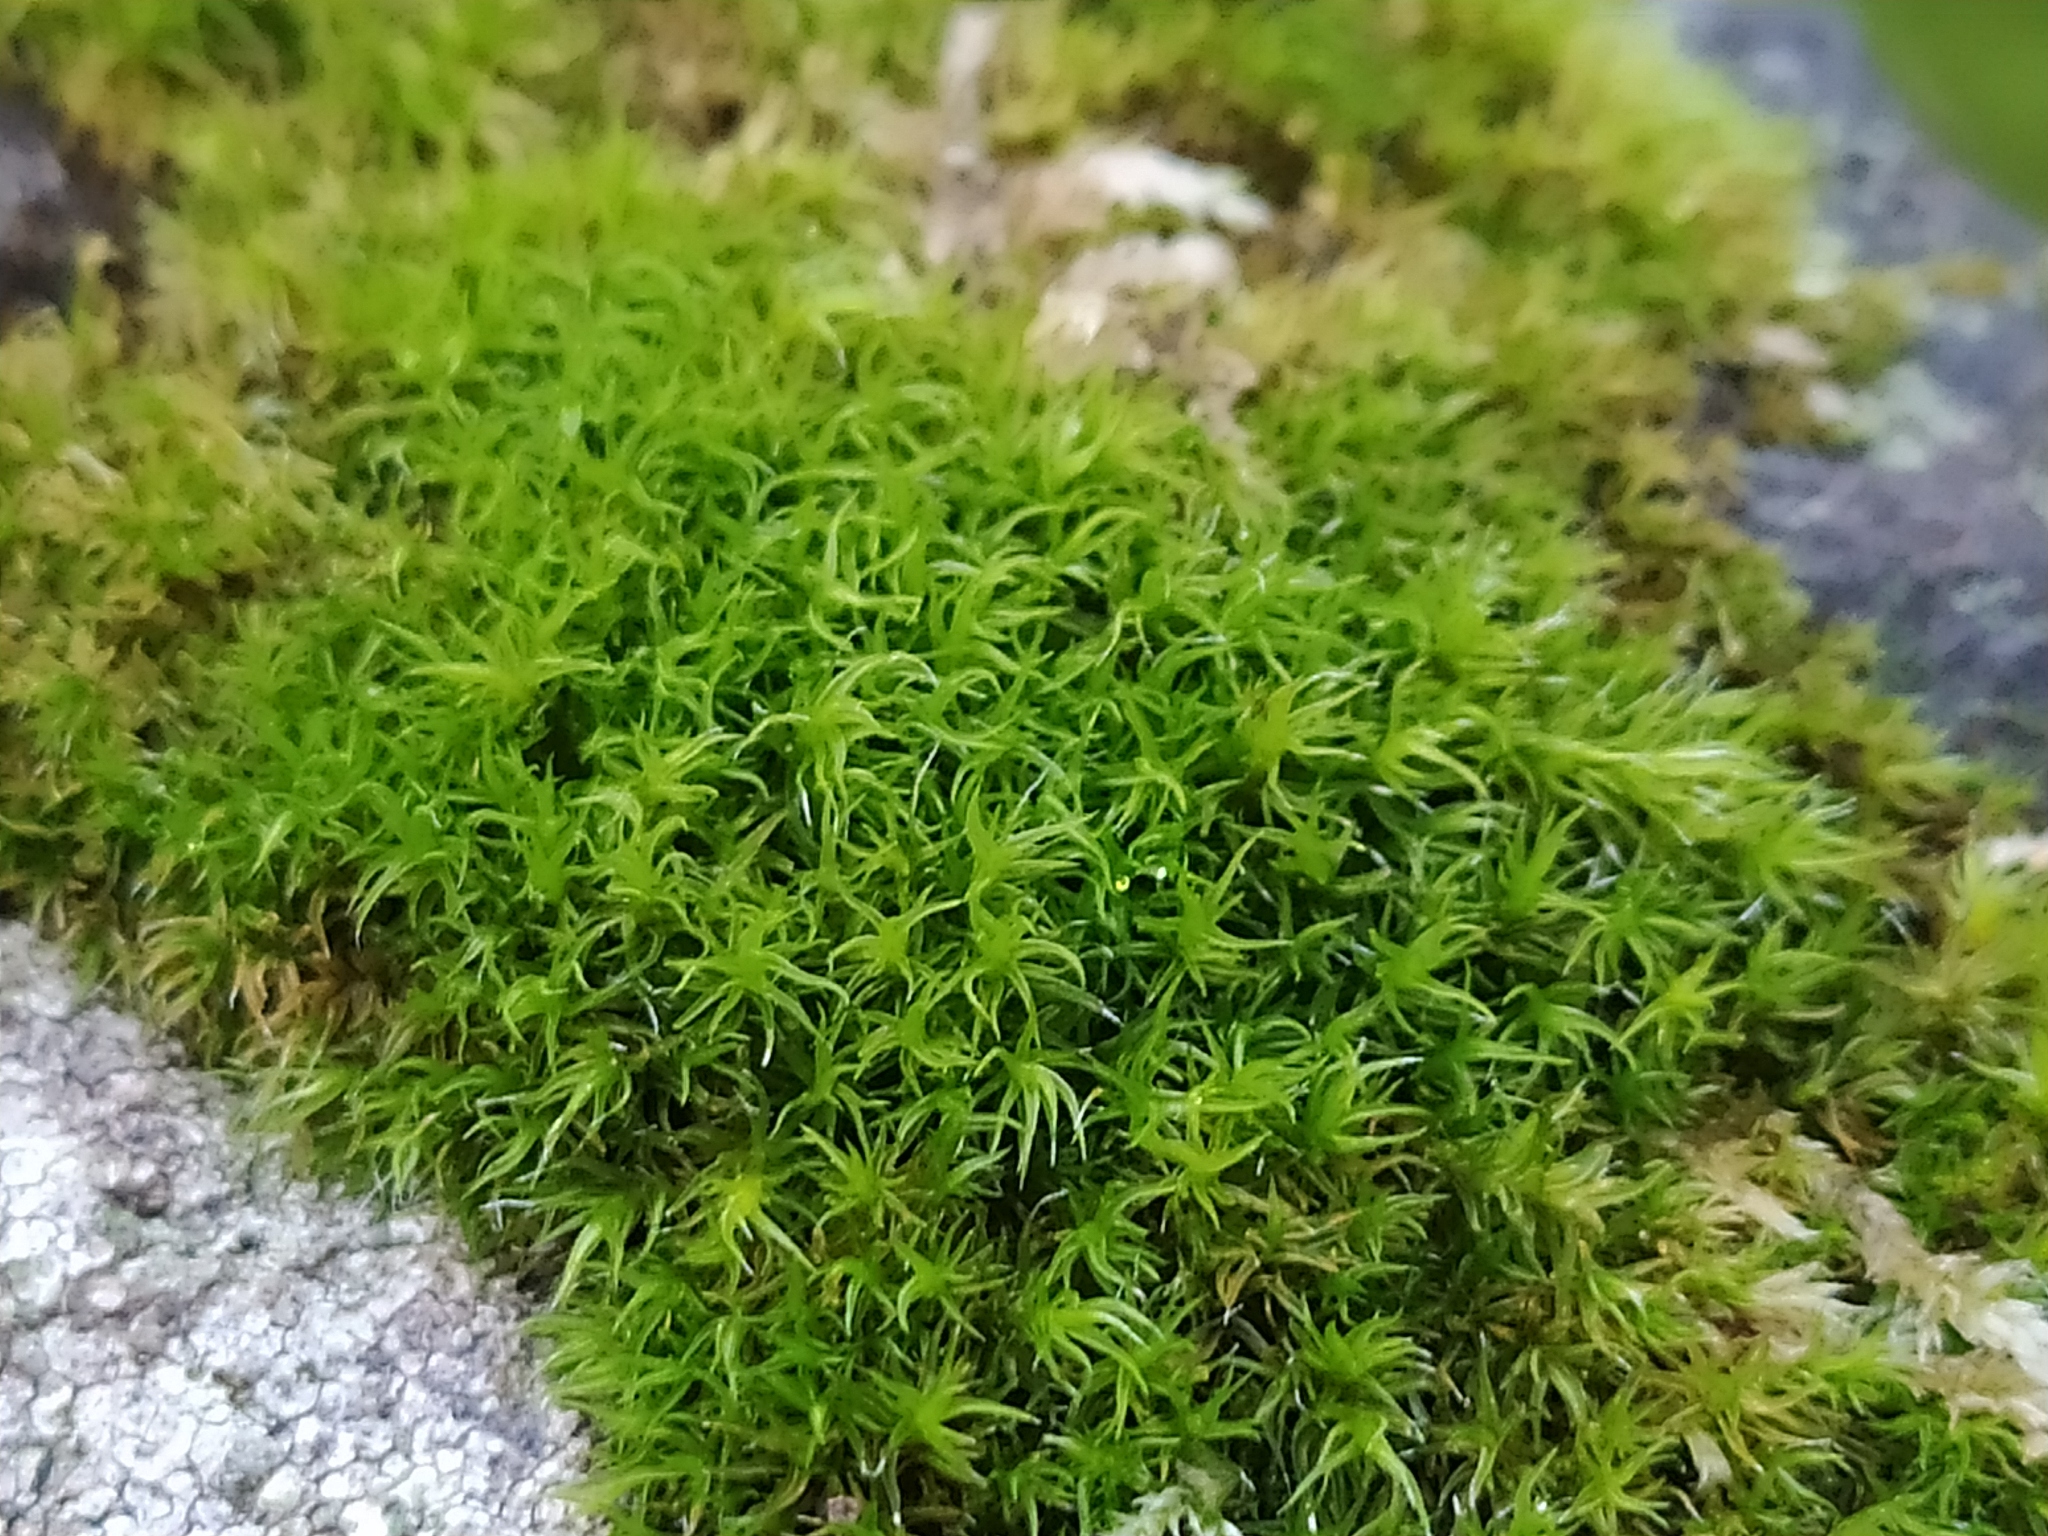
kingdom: Plantae
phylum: Bryophyta
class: Bryopsida
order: Grimmiales
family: Grimmiaceae
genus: Grimmia
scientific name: Grimmia hartmanii
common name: Hartman's grimmia
